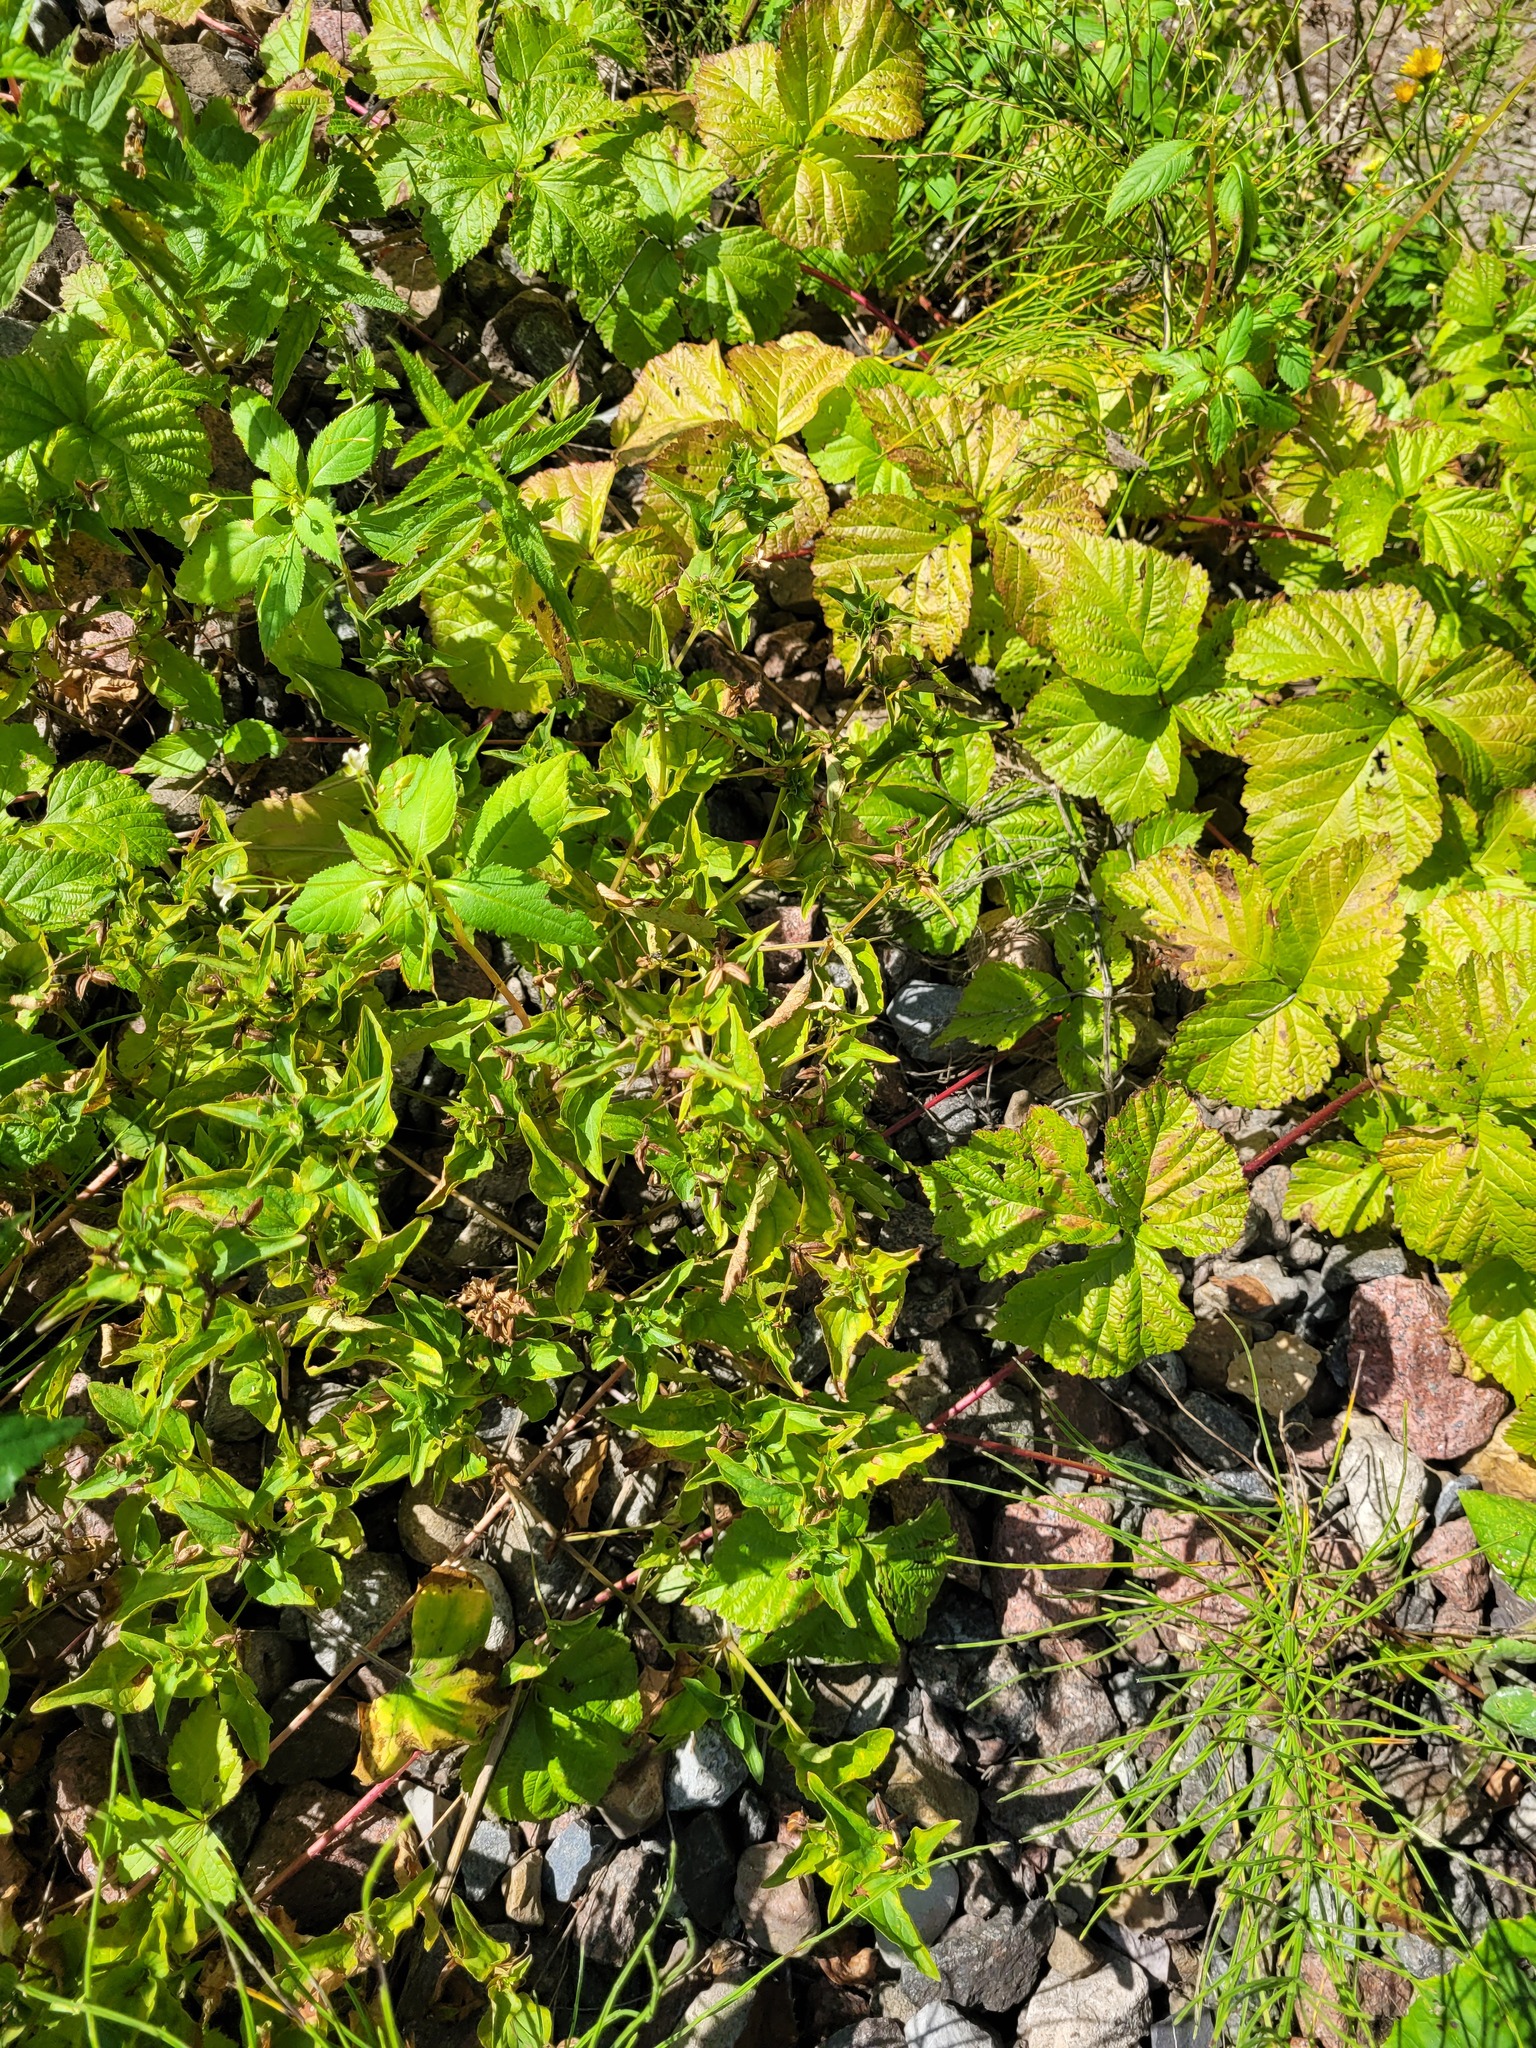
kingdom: Plantae
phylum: Tracheophyta
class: Magnoliopsida
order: Malpighiales
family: Violaceae
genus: Viola
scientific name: Viola canina
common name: Heath dog-violet
